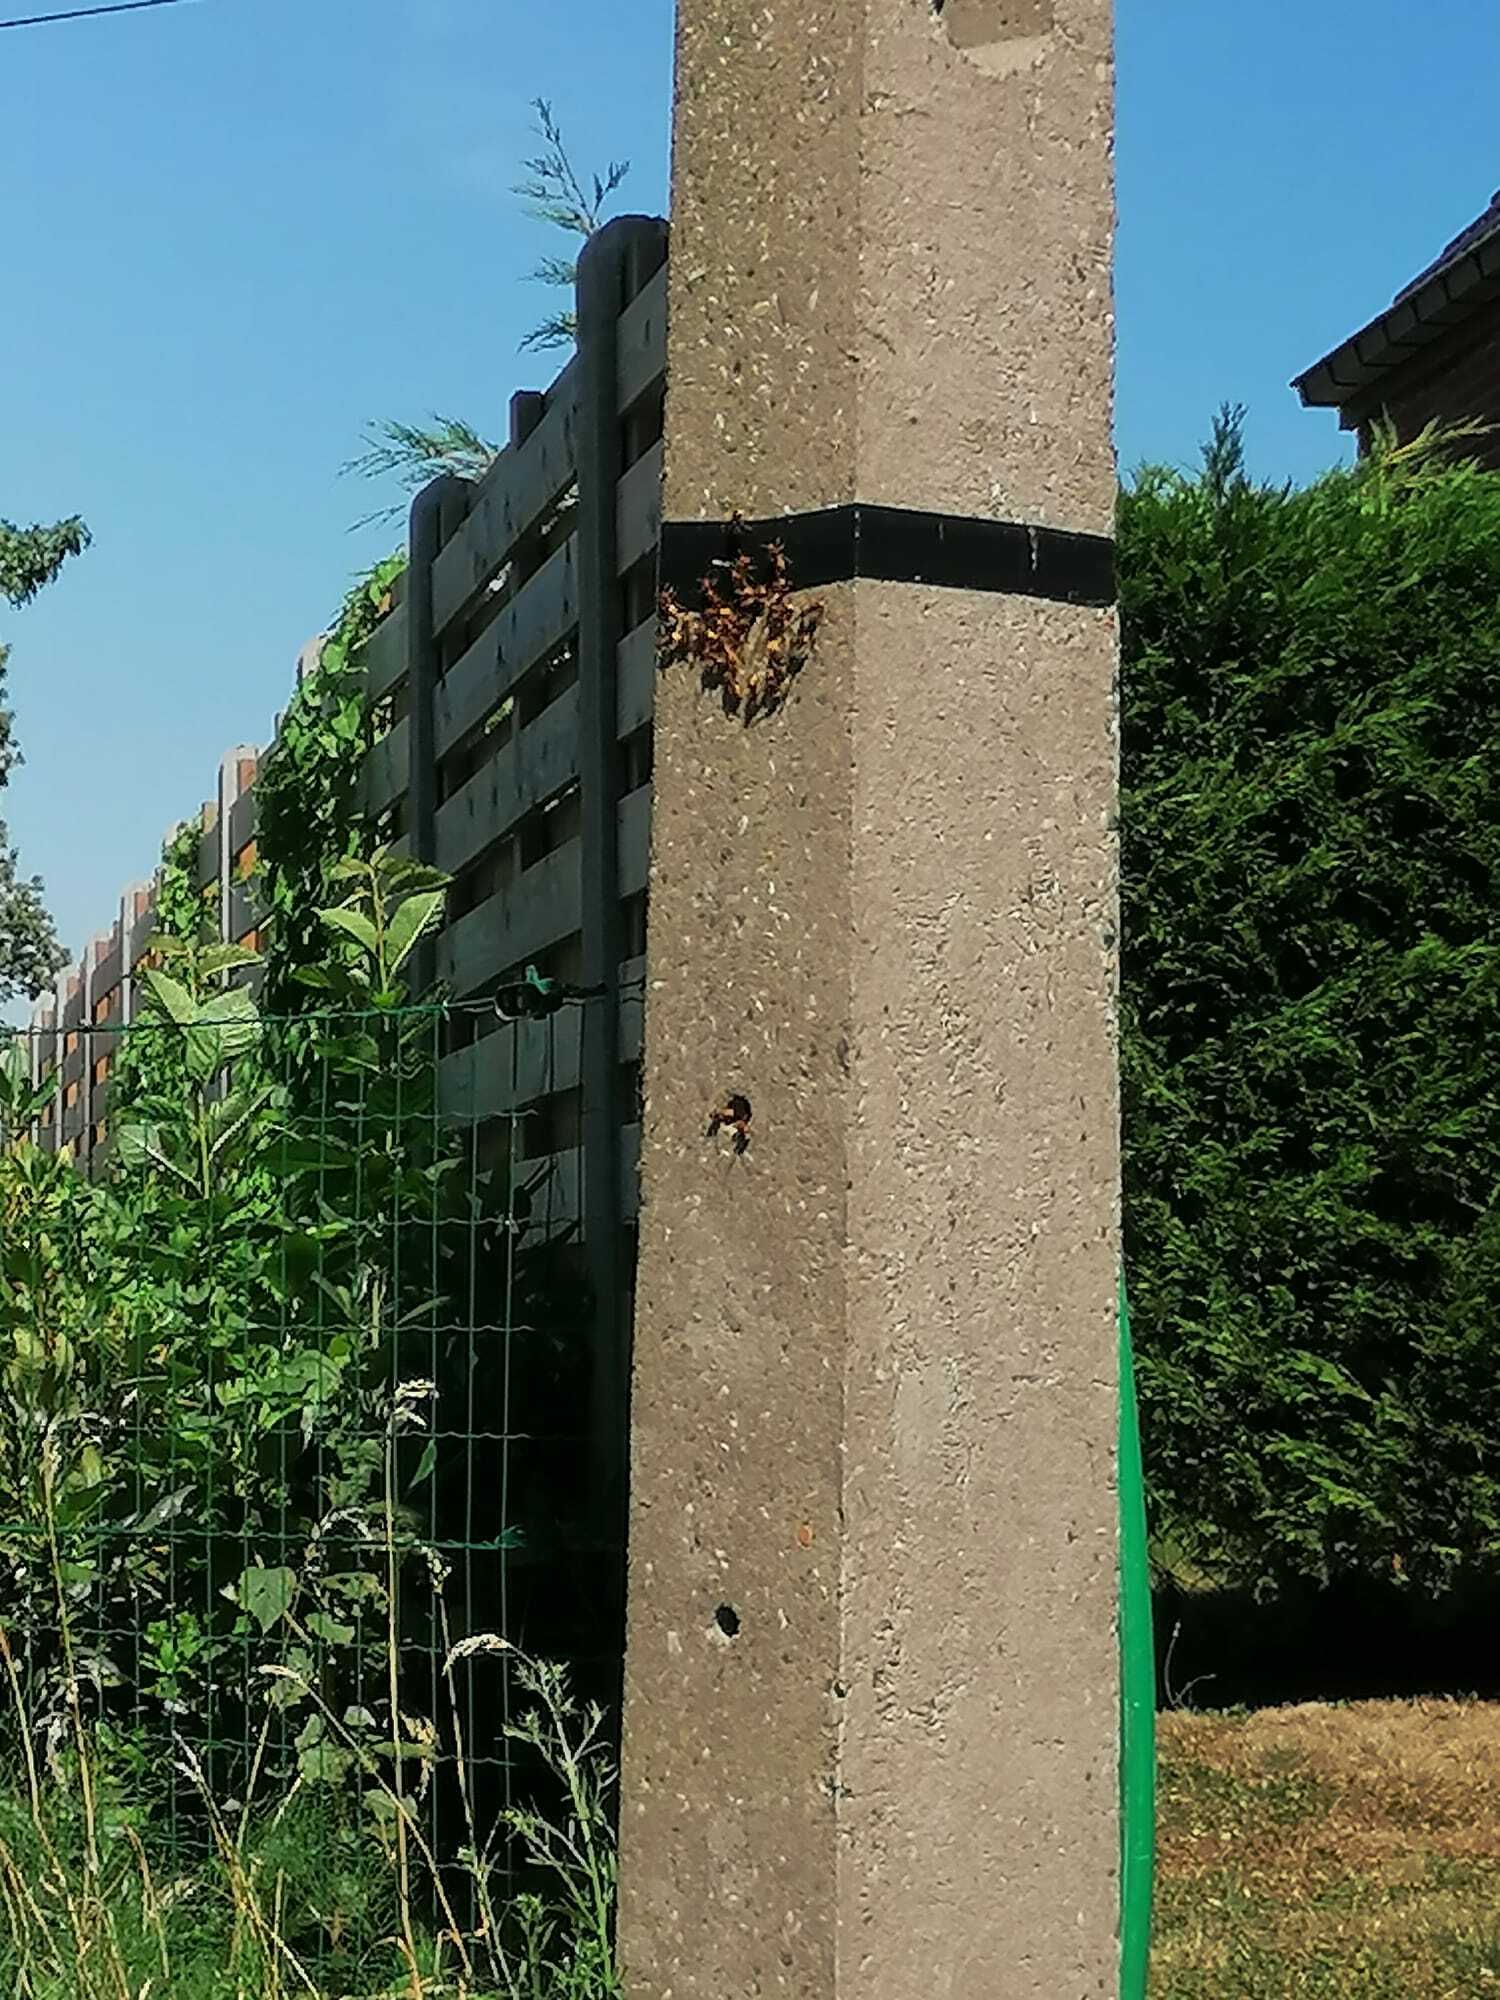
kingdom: Animalia
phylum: Arthropoda
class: Insecta
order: Hymenoptera
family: Vespidae
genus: Vespa
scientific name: Vespa crabro
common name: Hornet
